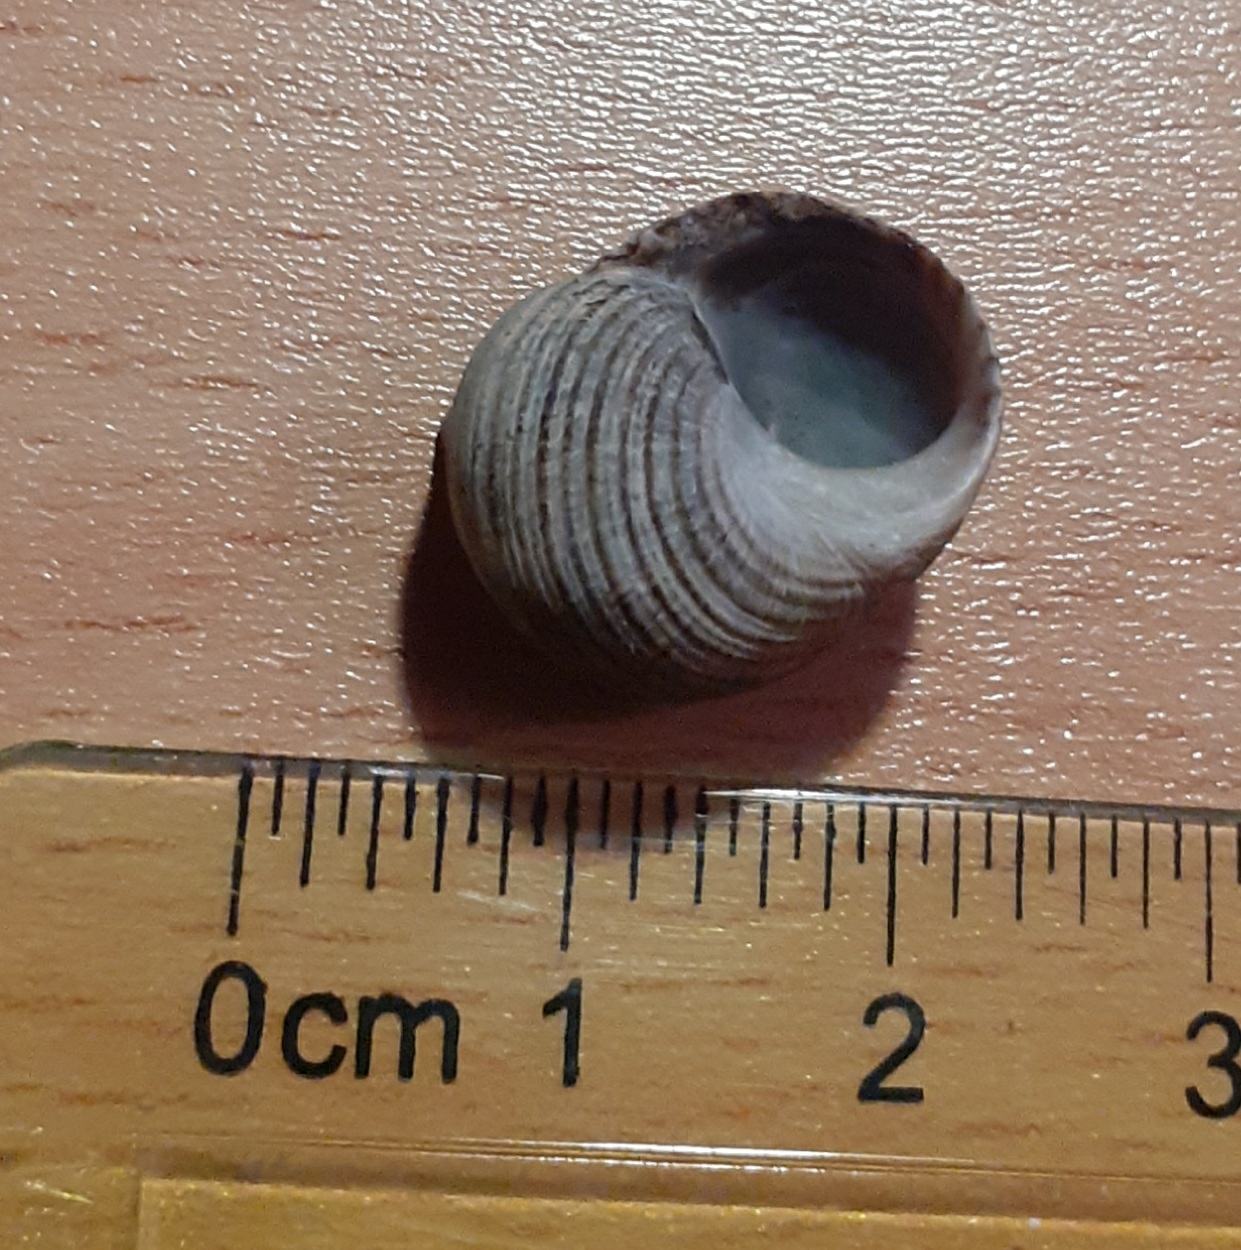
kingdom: Animalia
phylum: Mollusca
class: Gastropoda
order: Littorinimorpha
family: Littorinidae
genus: Littorina
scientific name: Littorina littorea
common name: Common periwinkle
